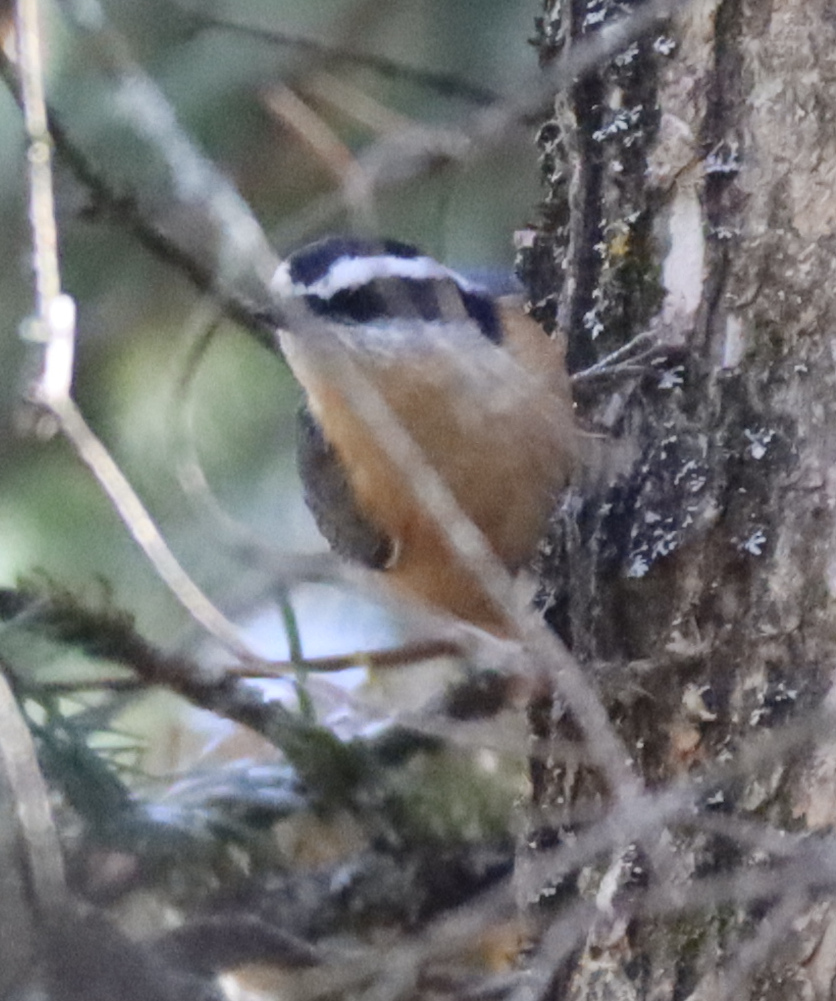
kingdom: Animalia
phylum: Chordata
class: Aves
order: Passeriformes
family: Sittidae
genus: Sitta
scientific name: Sitta canadensis
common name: Red-breasted nuthatch
